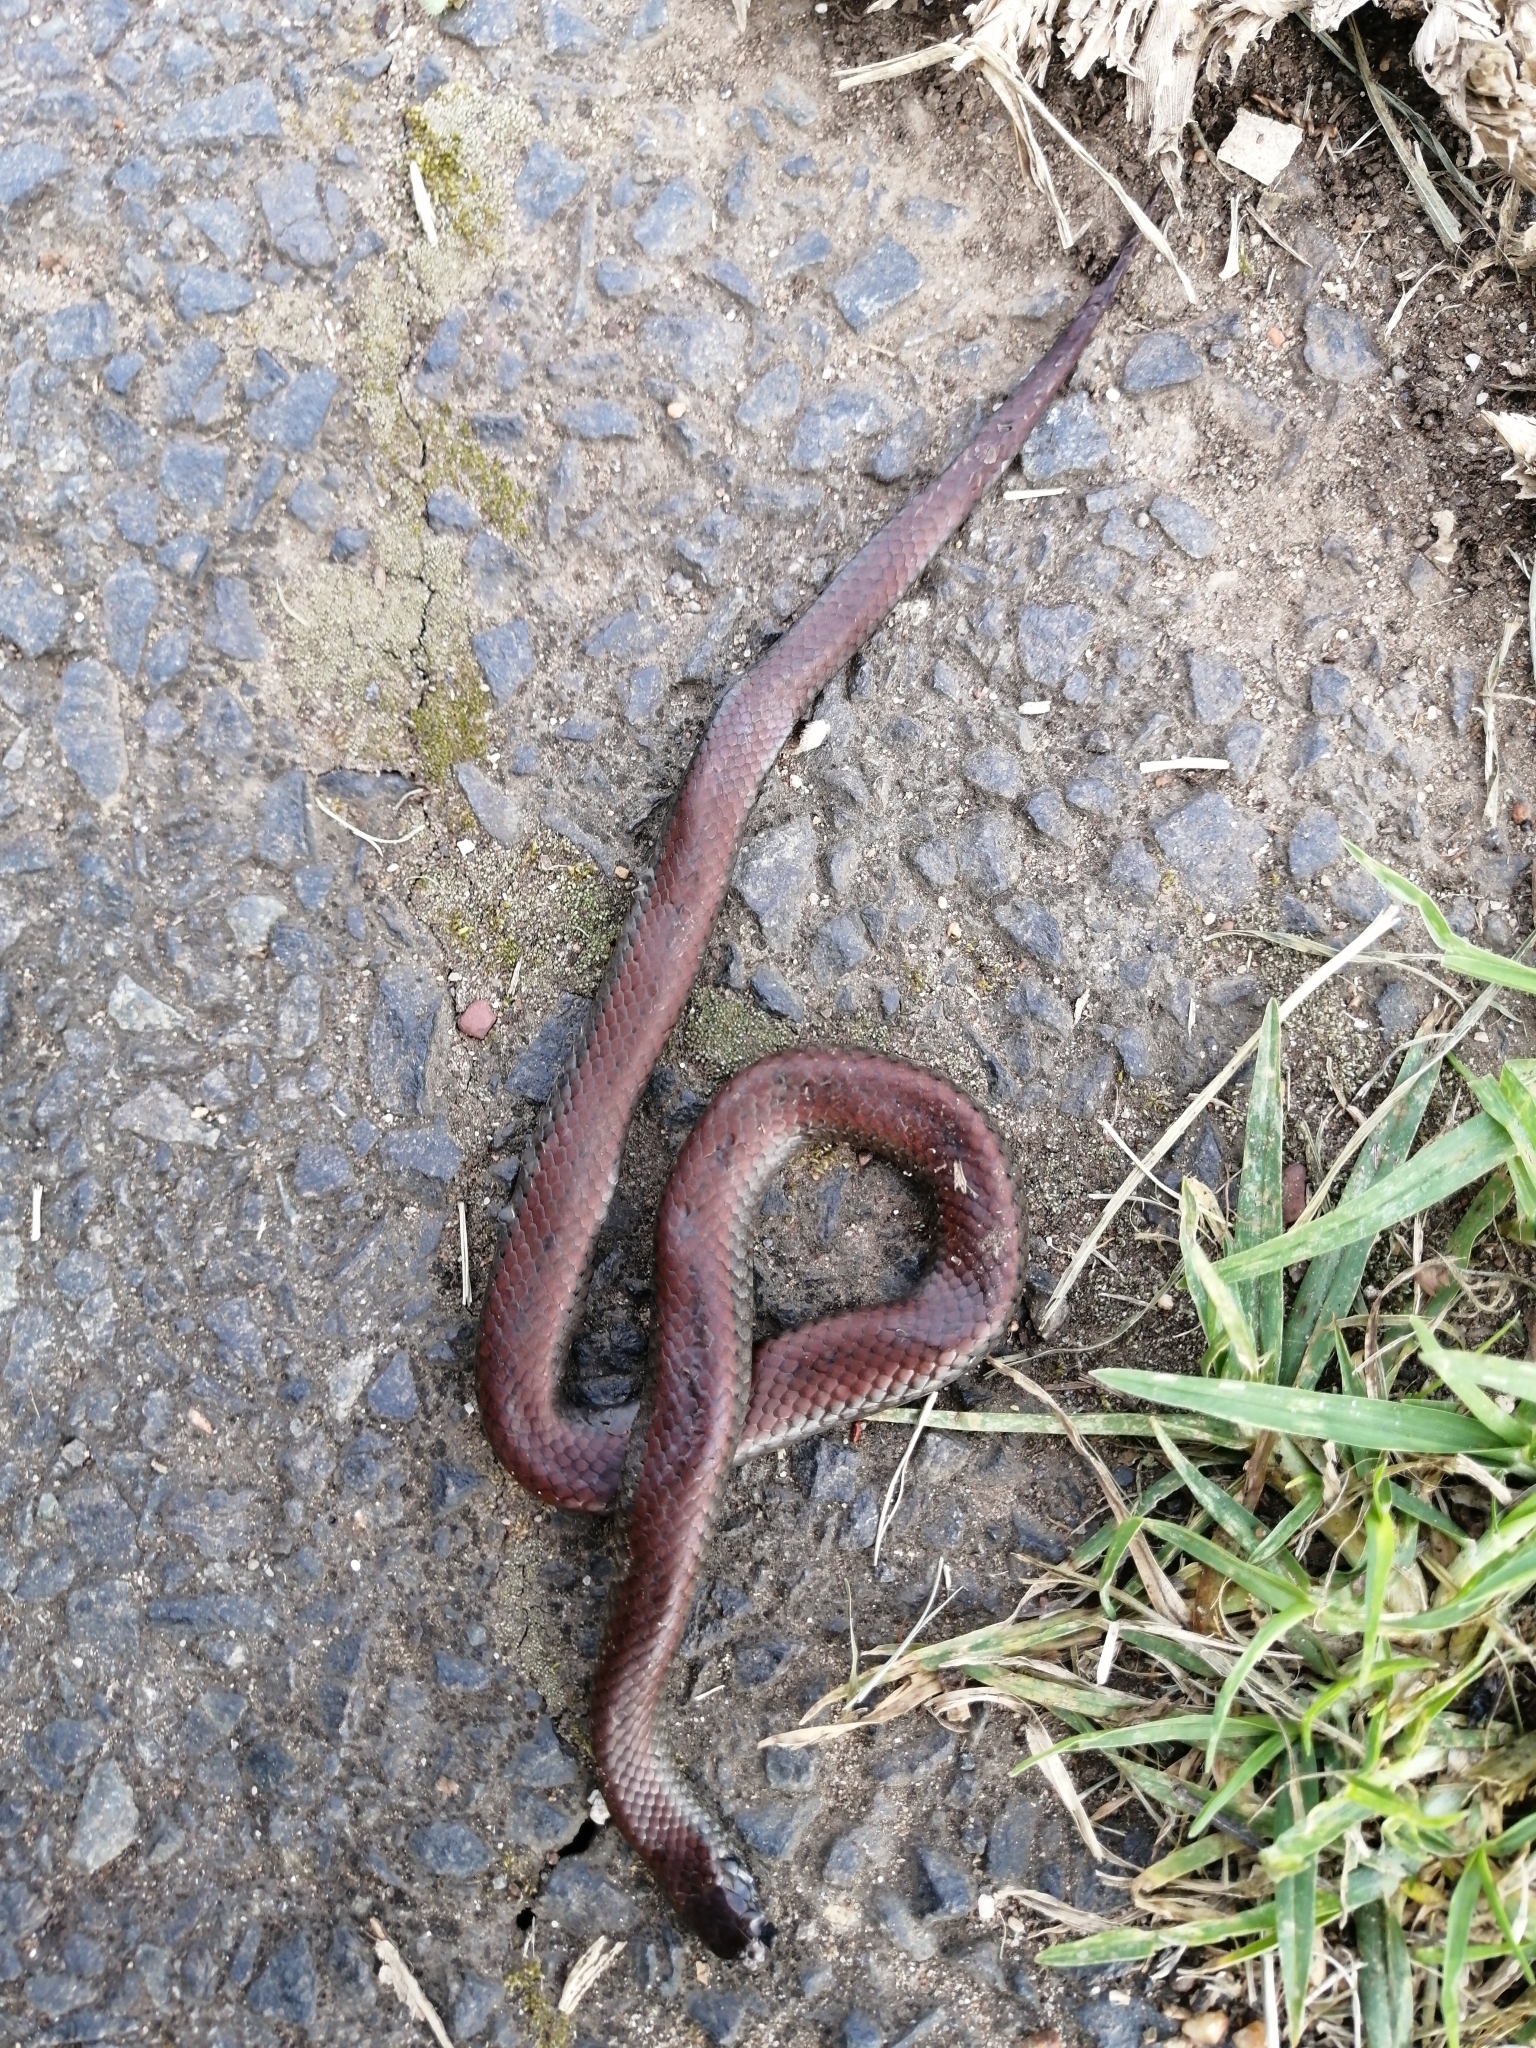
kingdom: Animalia
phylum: Chordata
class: Squamata
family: Pseudoxyrhophiidae
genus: Duberria
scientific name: Duberria lutrix
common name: Common slug eater
